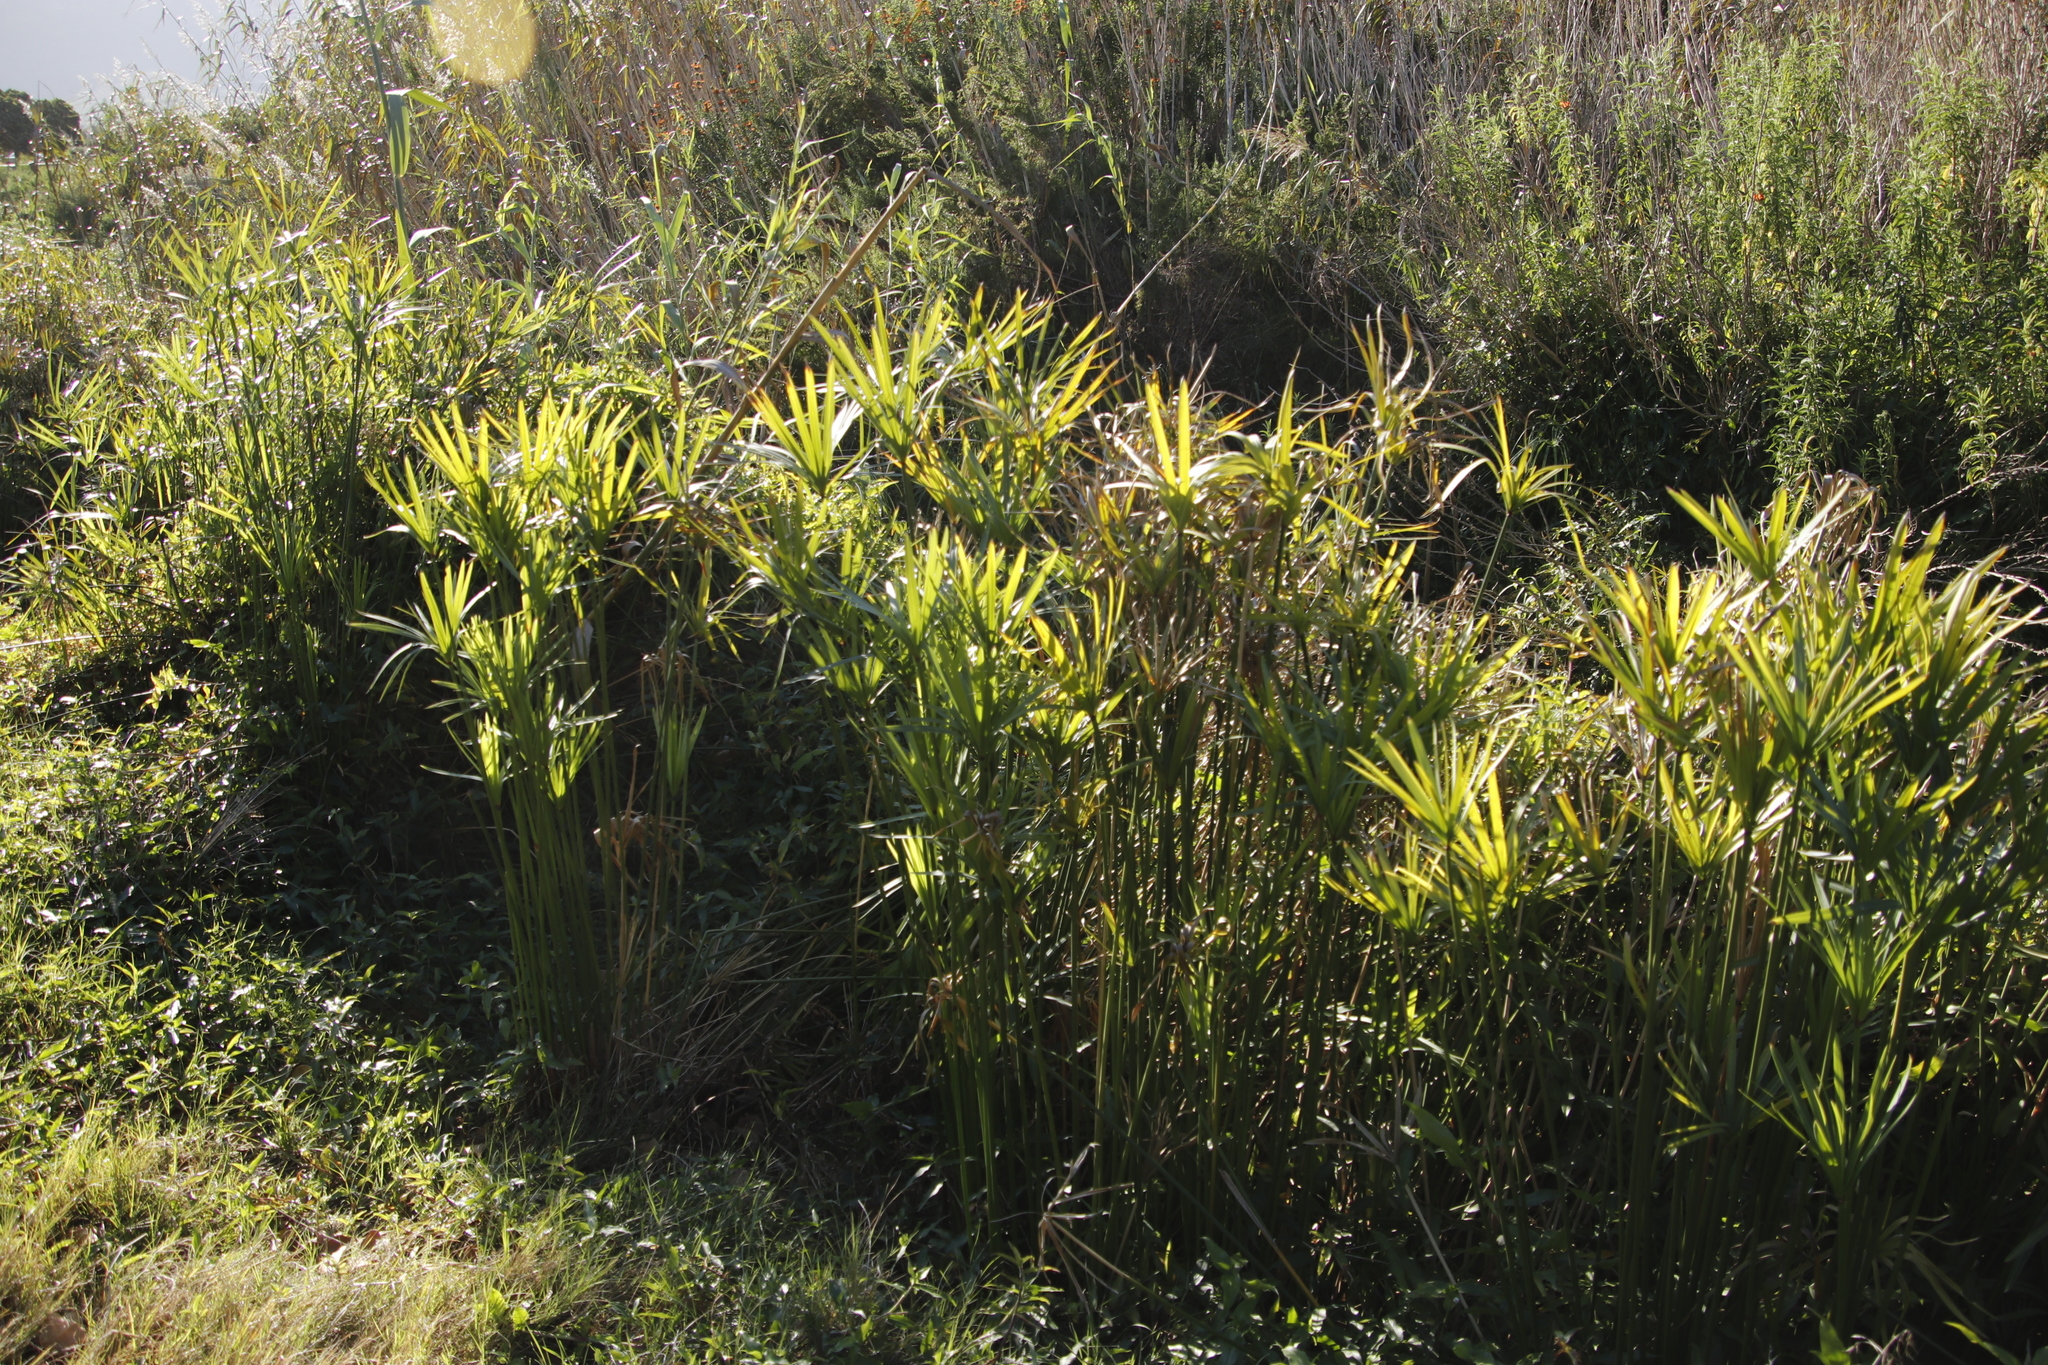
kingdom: Plantae
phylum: Tracheophyta
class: Liliopsida
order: Poales
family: Cyperaceae
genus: Cyperus
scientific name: Cyperus textilis
